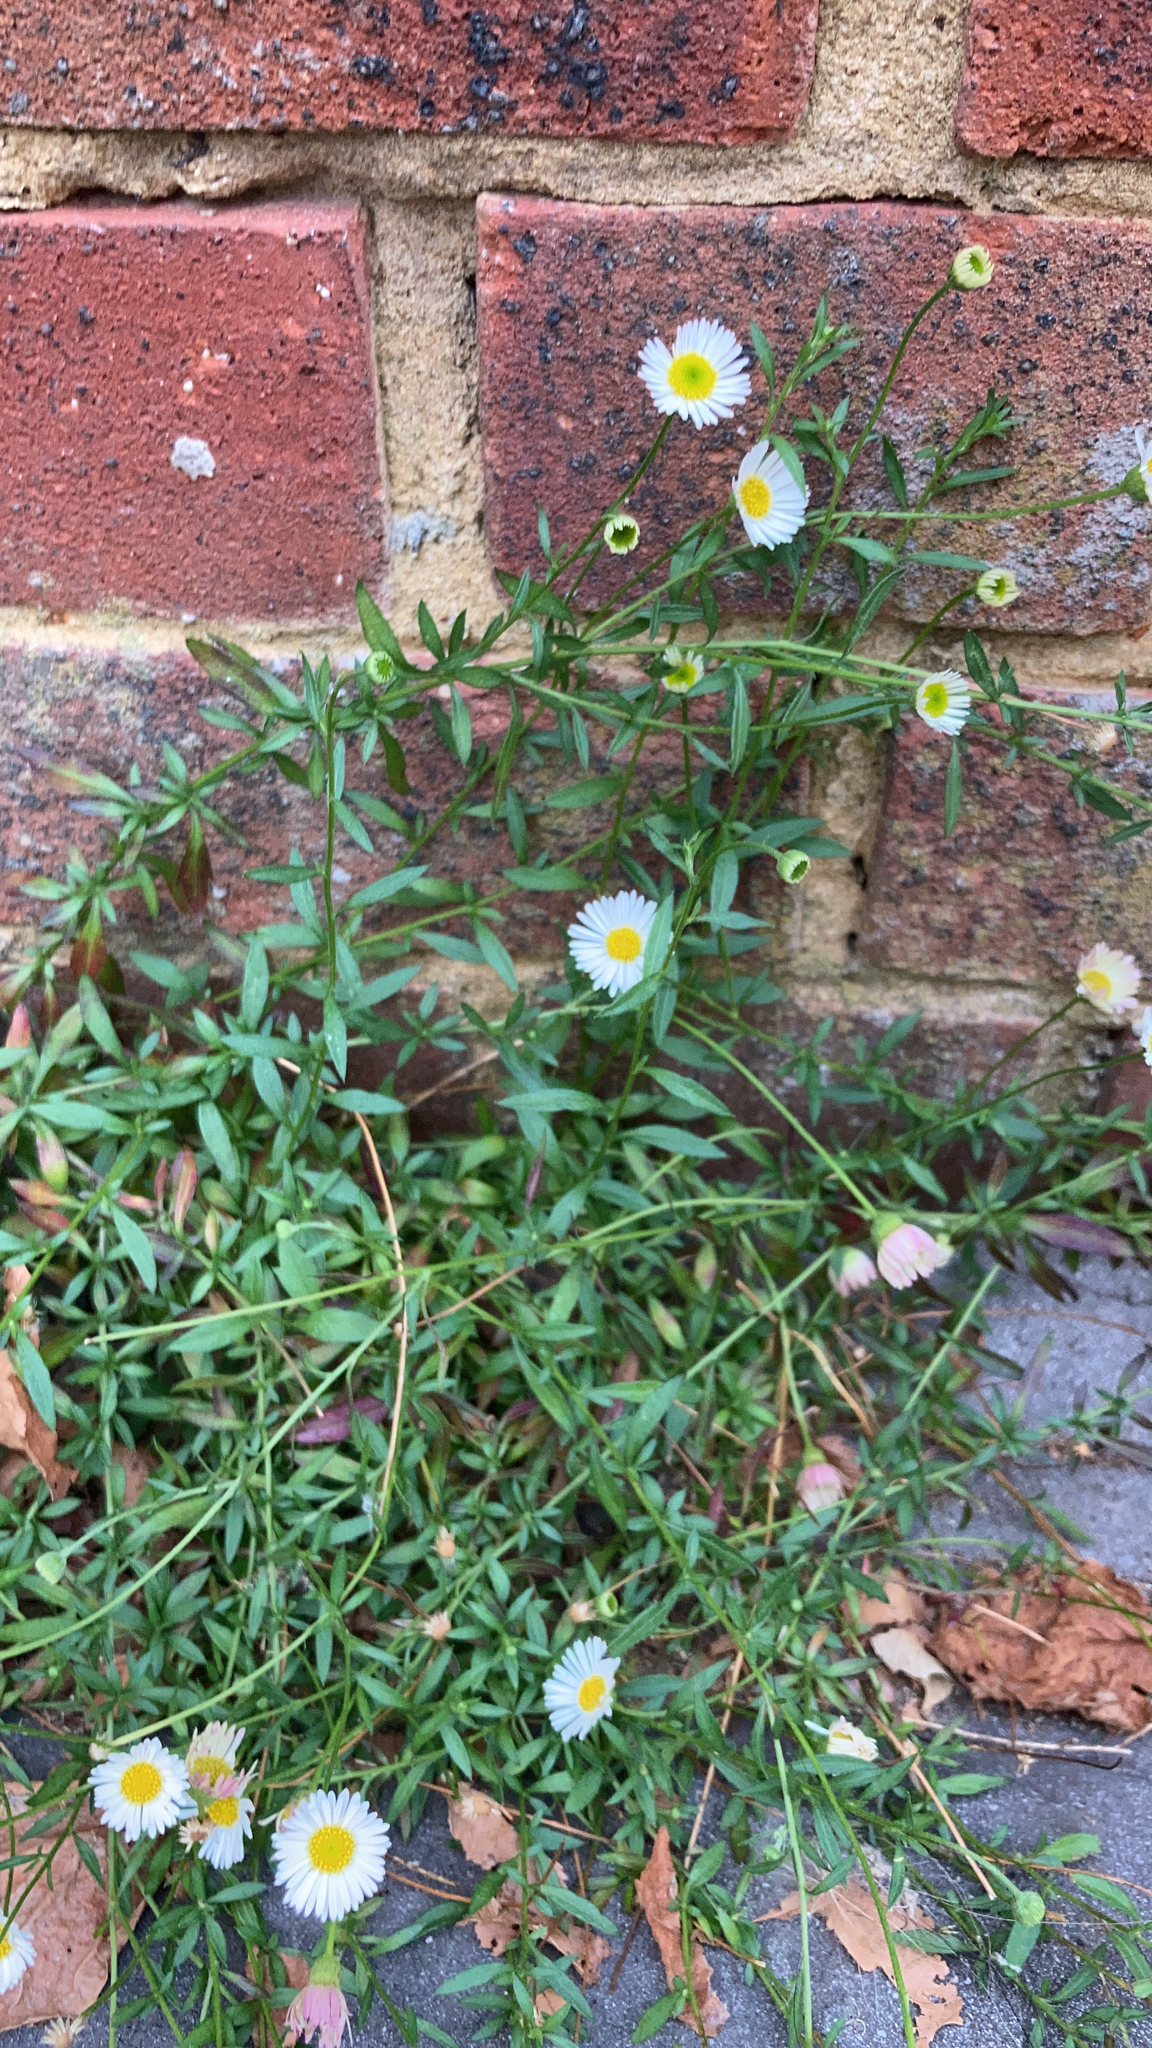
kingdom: Plantae
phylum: Tracheophyta
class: Magnoliopsida
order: Asterales
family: Asteraceae
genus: Erigeron
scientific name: Erigeron karvinskianus
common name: Mexican fleabane
